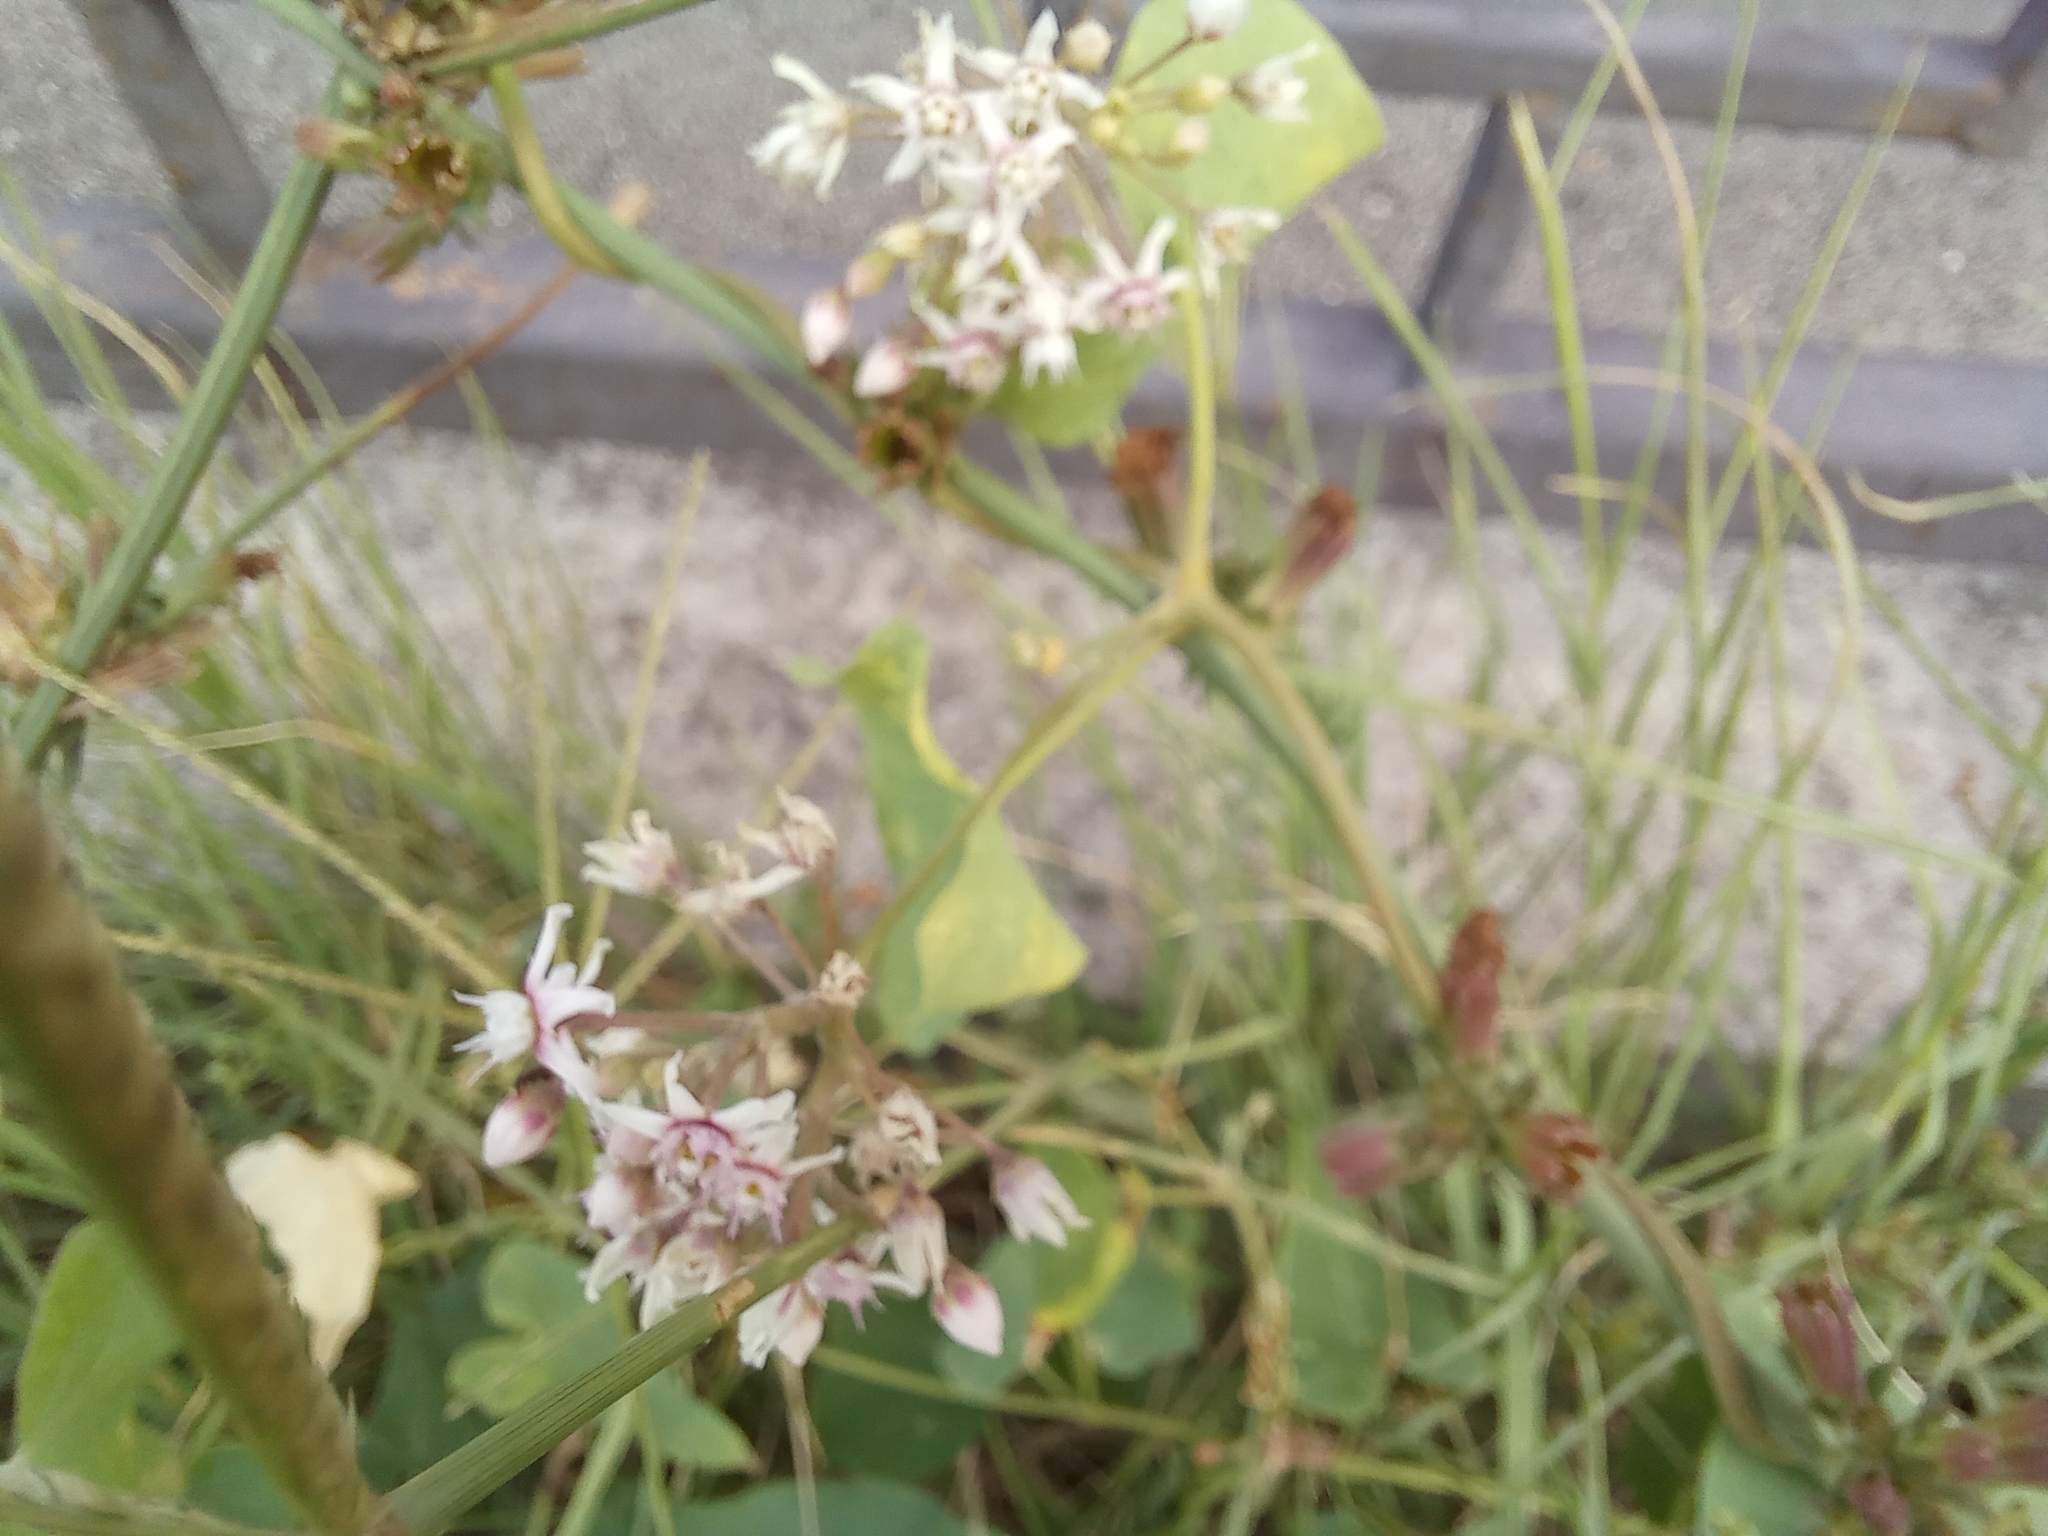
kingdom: Plantae
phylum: Tracheophyta
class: Magnoliopsida
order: Gentianales
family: Apocynaceae
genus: Cynanchum
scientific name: Cynanchum acutum
